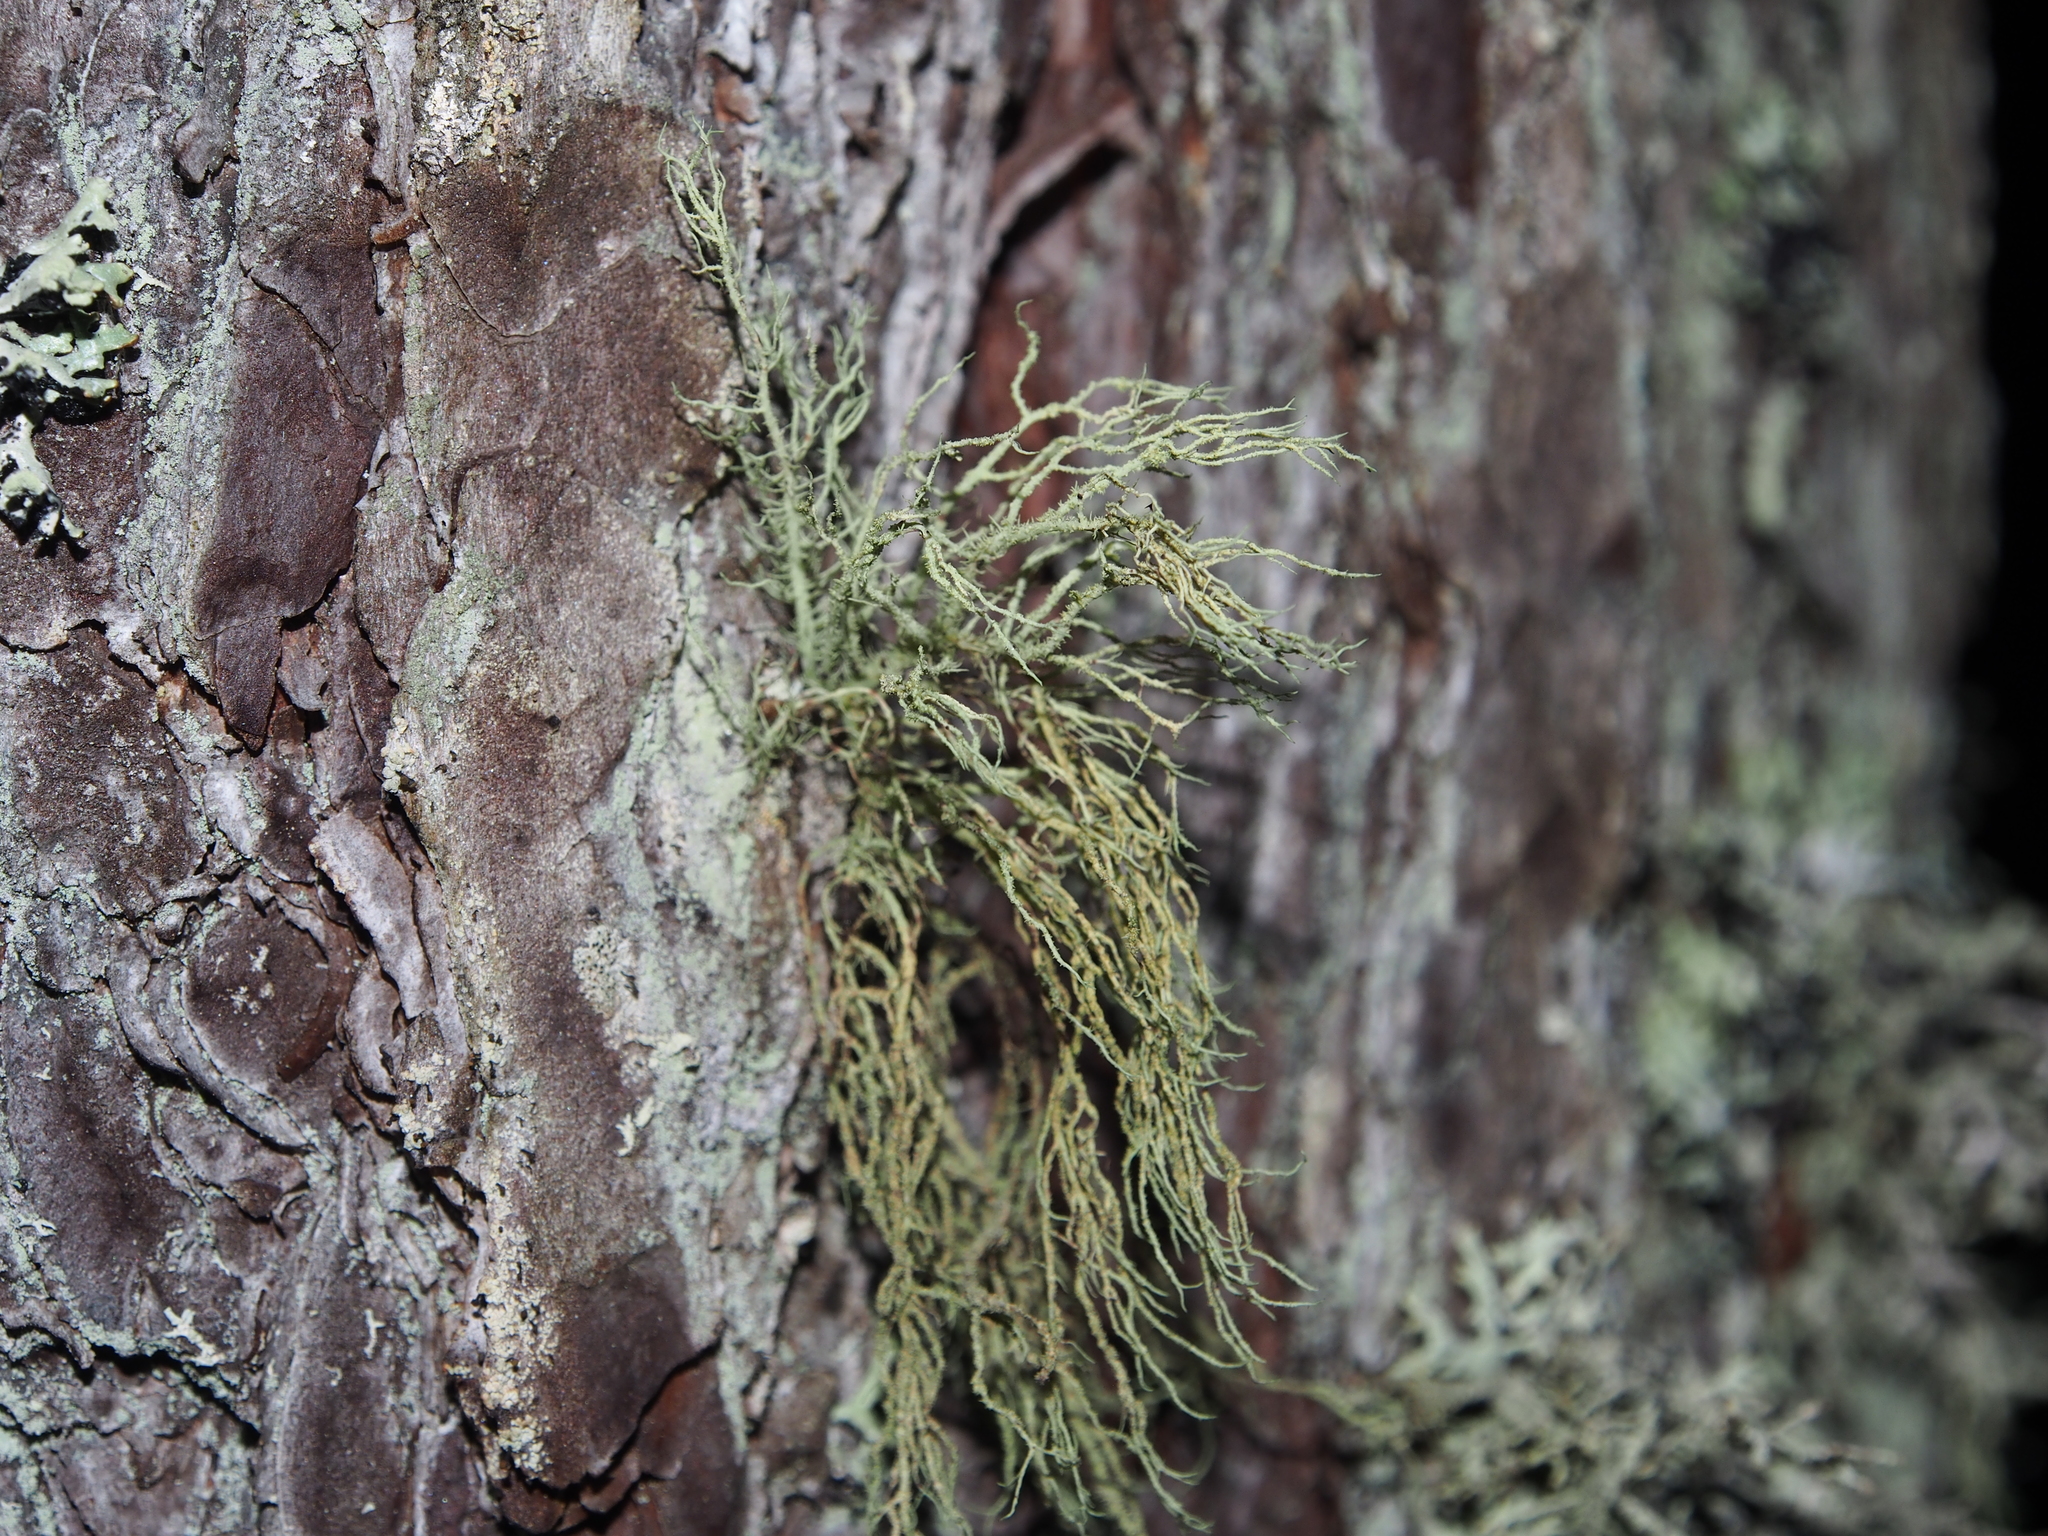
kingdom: Fungi
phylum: Ascomycota
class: Lecanoromycetes
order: Lecanorales
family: Parmeliaceae
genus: Usnea
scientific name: Usnea hirta
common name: Bristly beard lichen
